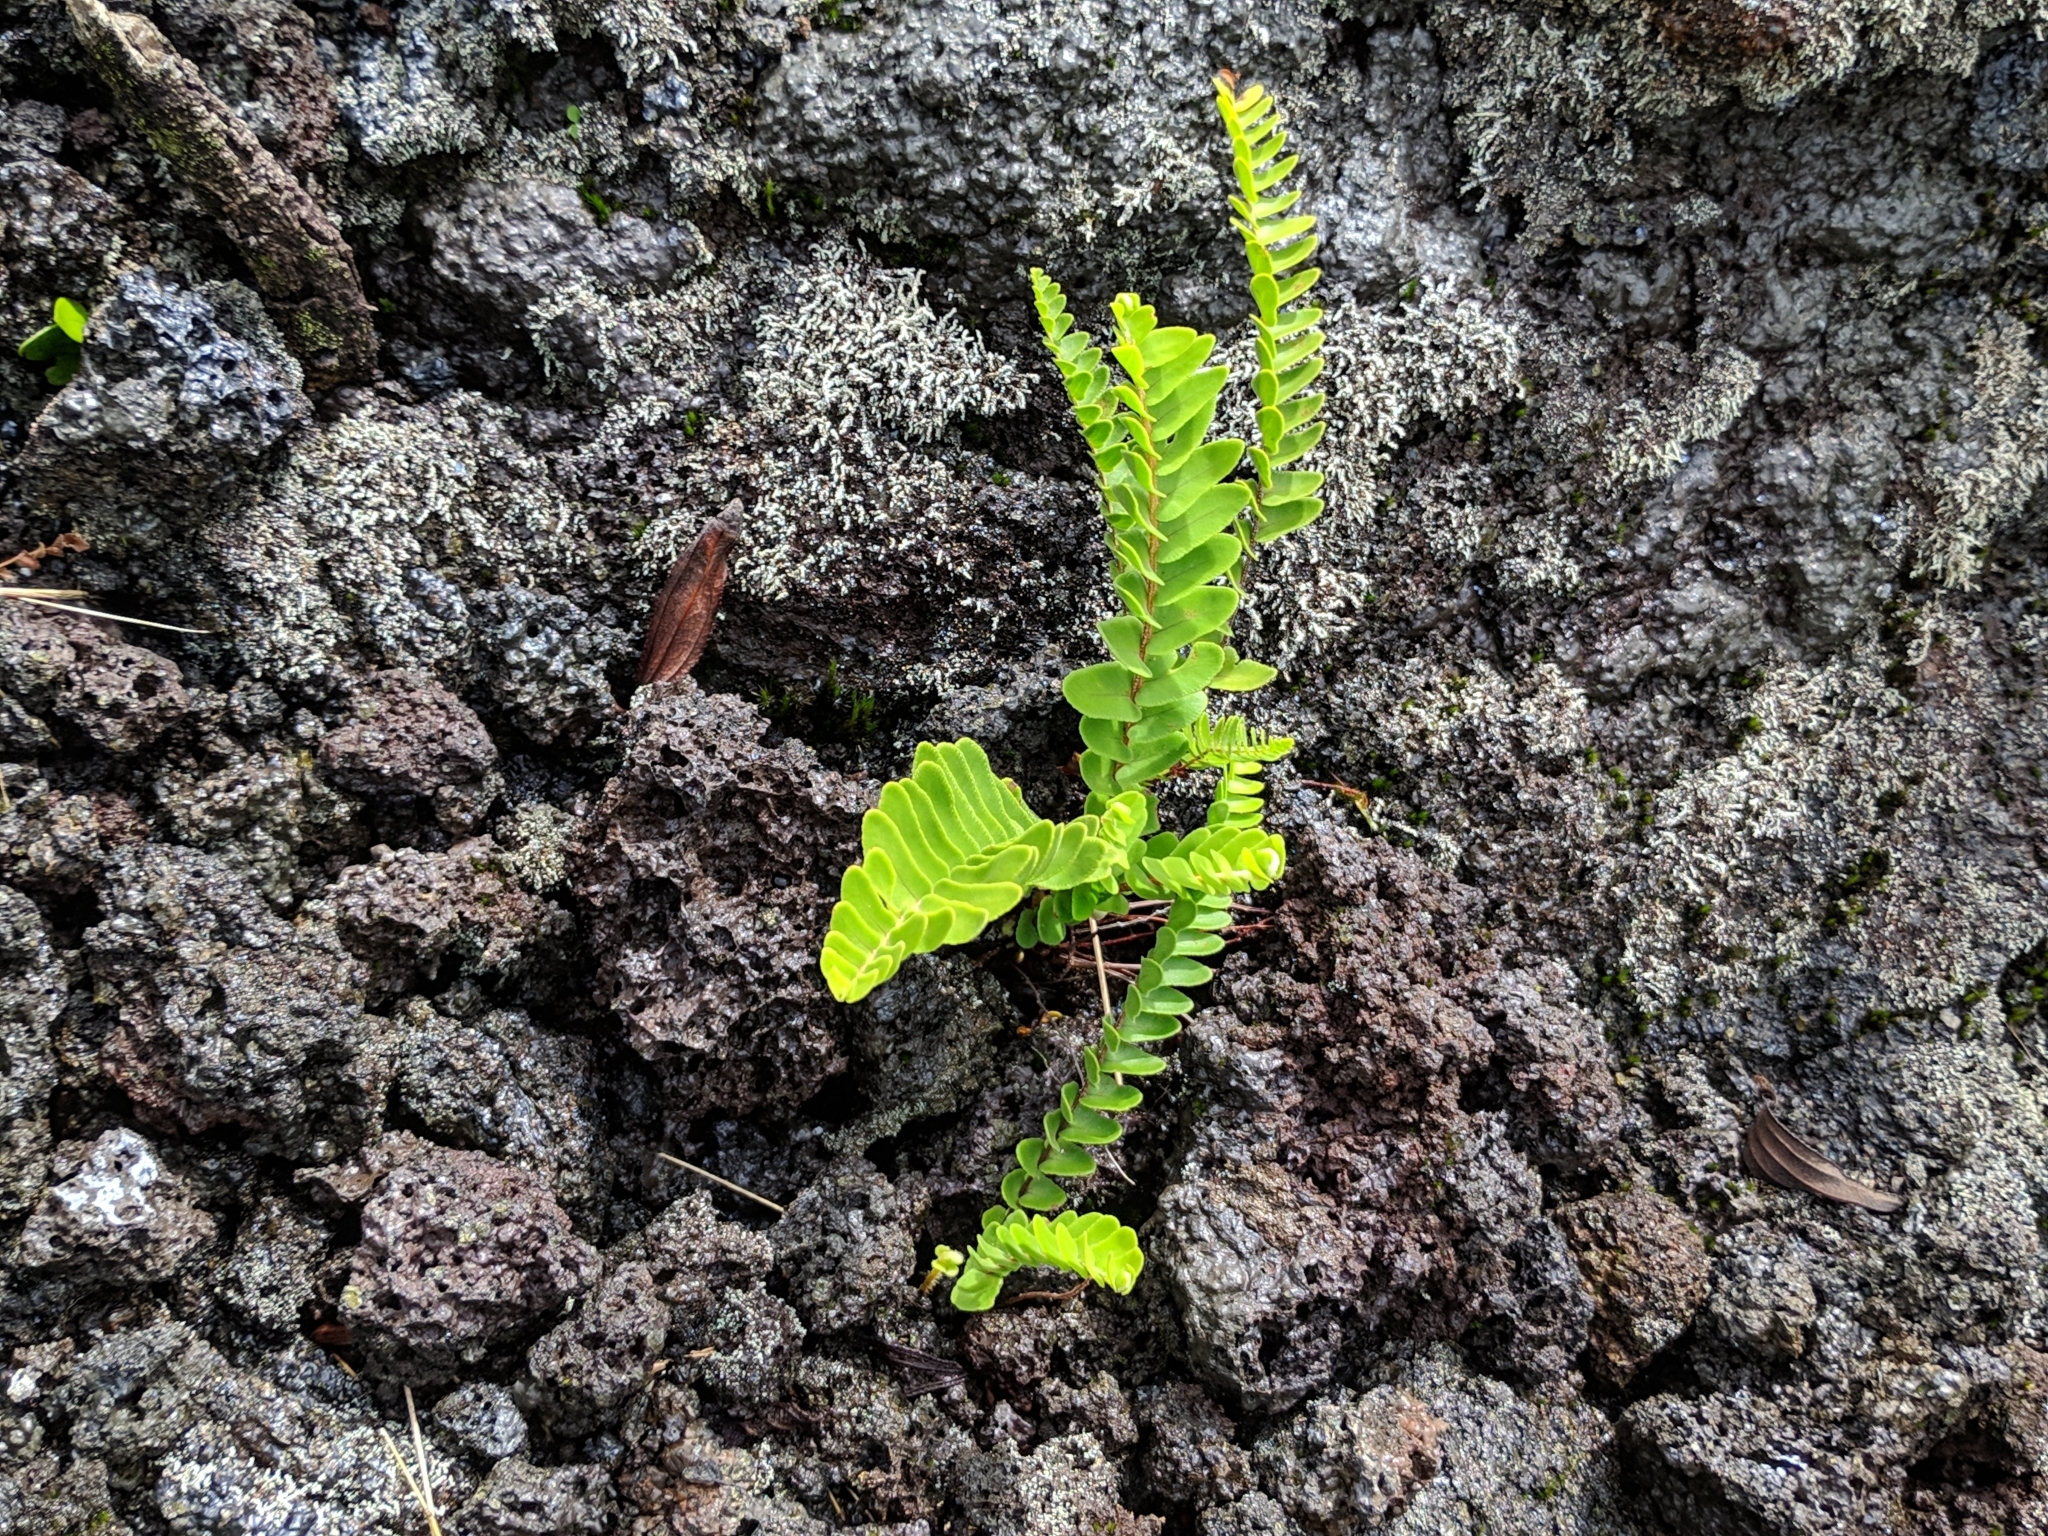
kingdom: Plantae
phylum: Tracheophyta
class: Polypodiopsida
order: Polypodiales
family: Nephrolepidaceae
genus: Nephrolepis
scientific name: Nephrolepis abrupta
